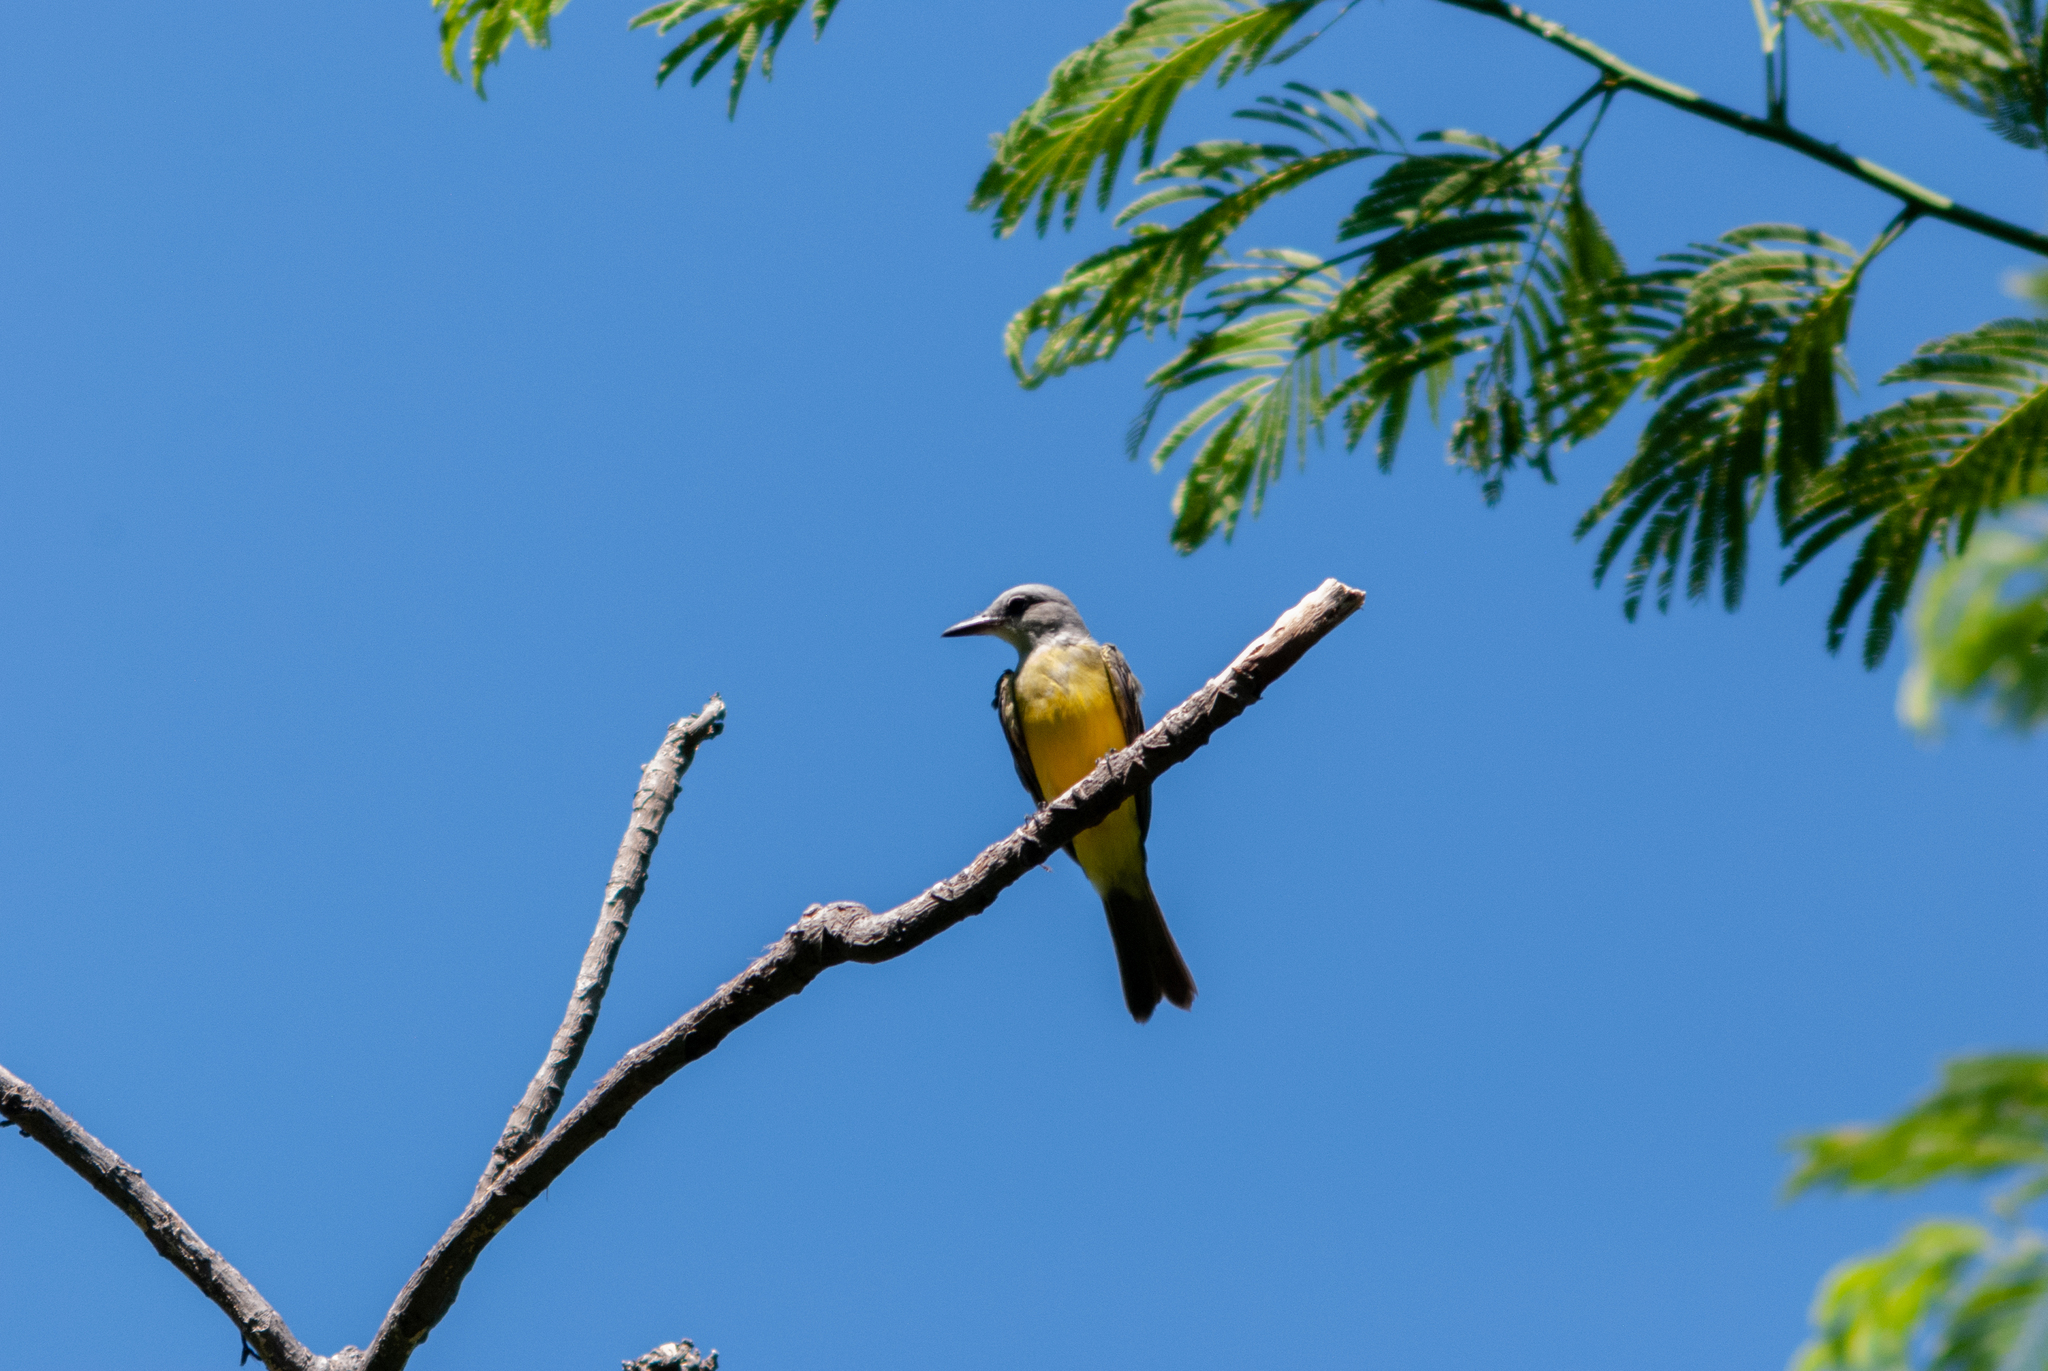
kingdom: Animalia
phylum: Chordata
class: Aves
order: Passeriformes
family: Tyrannidae
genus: Tyrannus
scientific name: Tyrannus melancholicus
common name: Tropical kingbird
